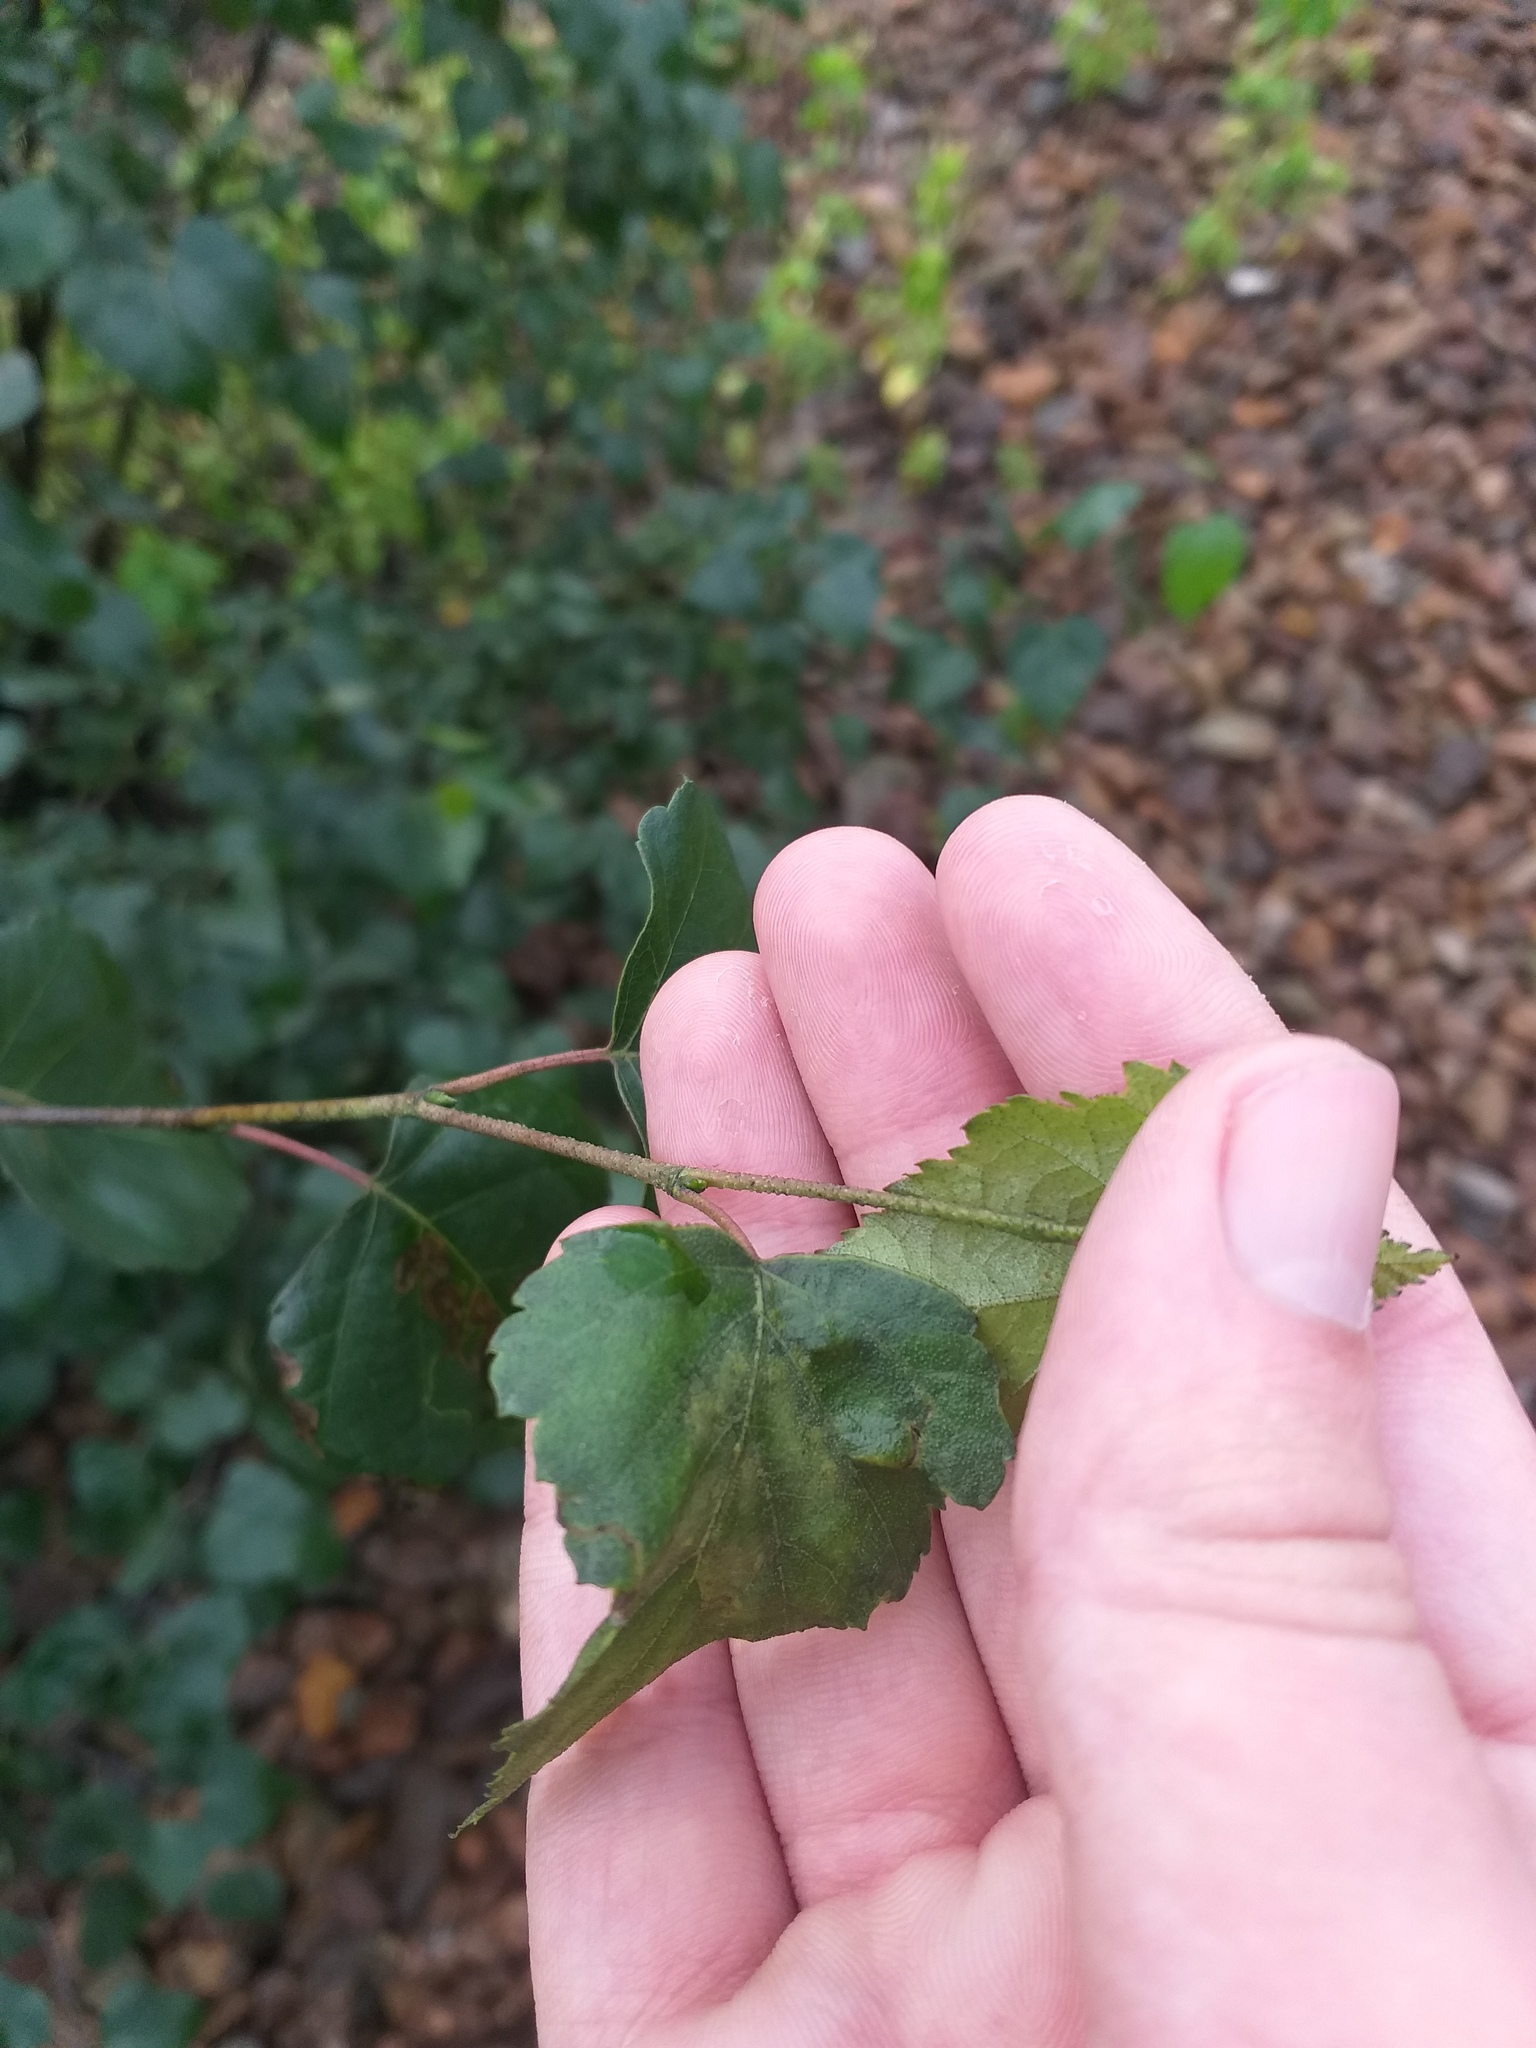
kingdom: Plantae
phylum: Tracheophyta
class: Magnoliopsida
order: Fagales
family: Betulaceae
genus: Betula
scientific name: Betula pendula
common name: Silver birch
